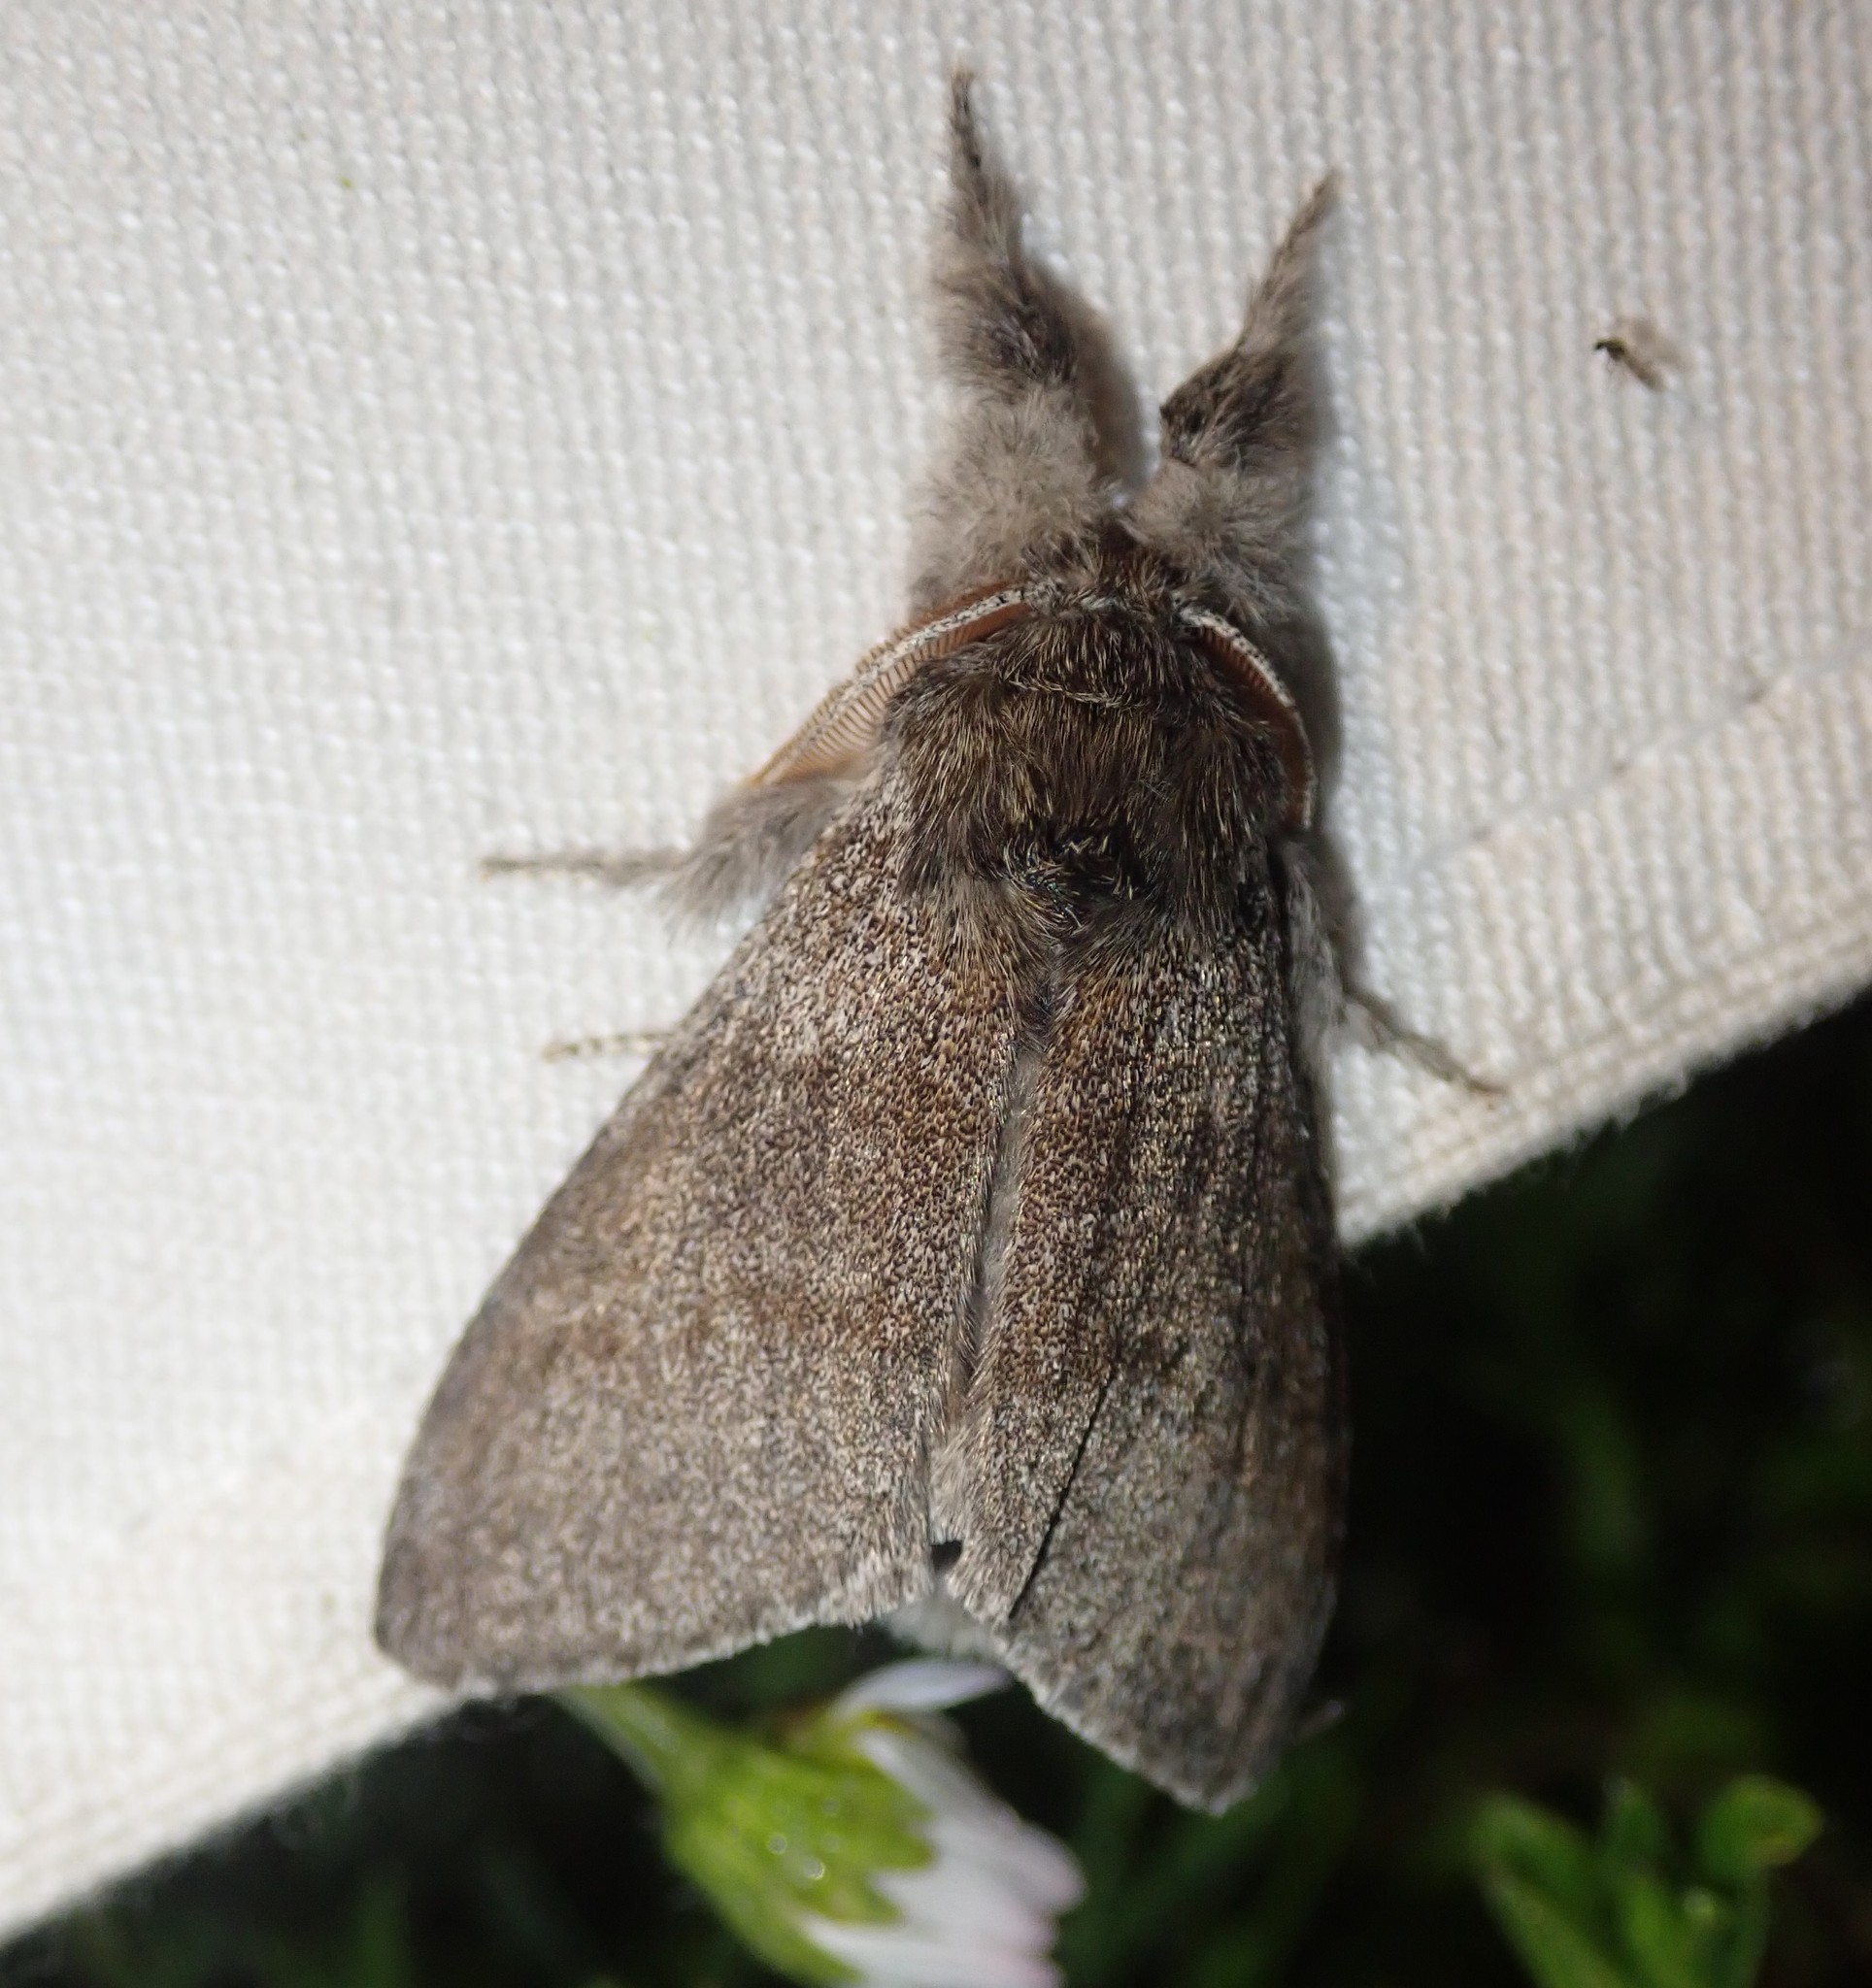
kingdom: Animalia
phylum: Arthropoda
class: Insecta
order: Lepidoptera
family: Erebidae
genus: Calliteara
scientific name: Calliteara pudibunda
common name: Pale tussock
